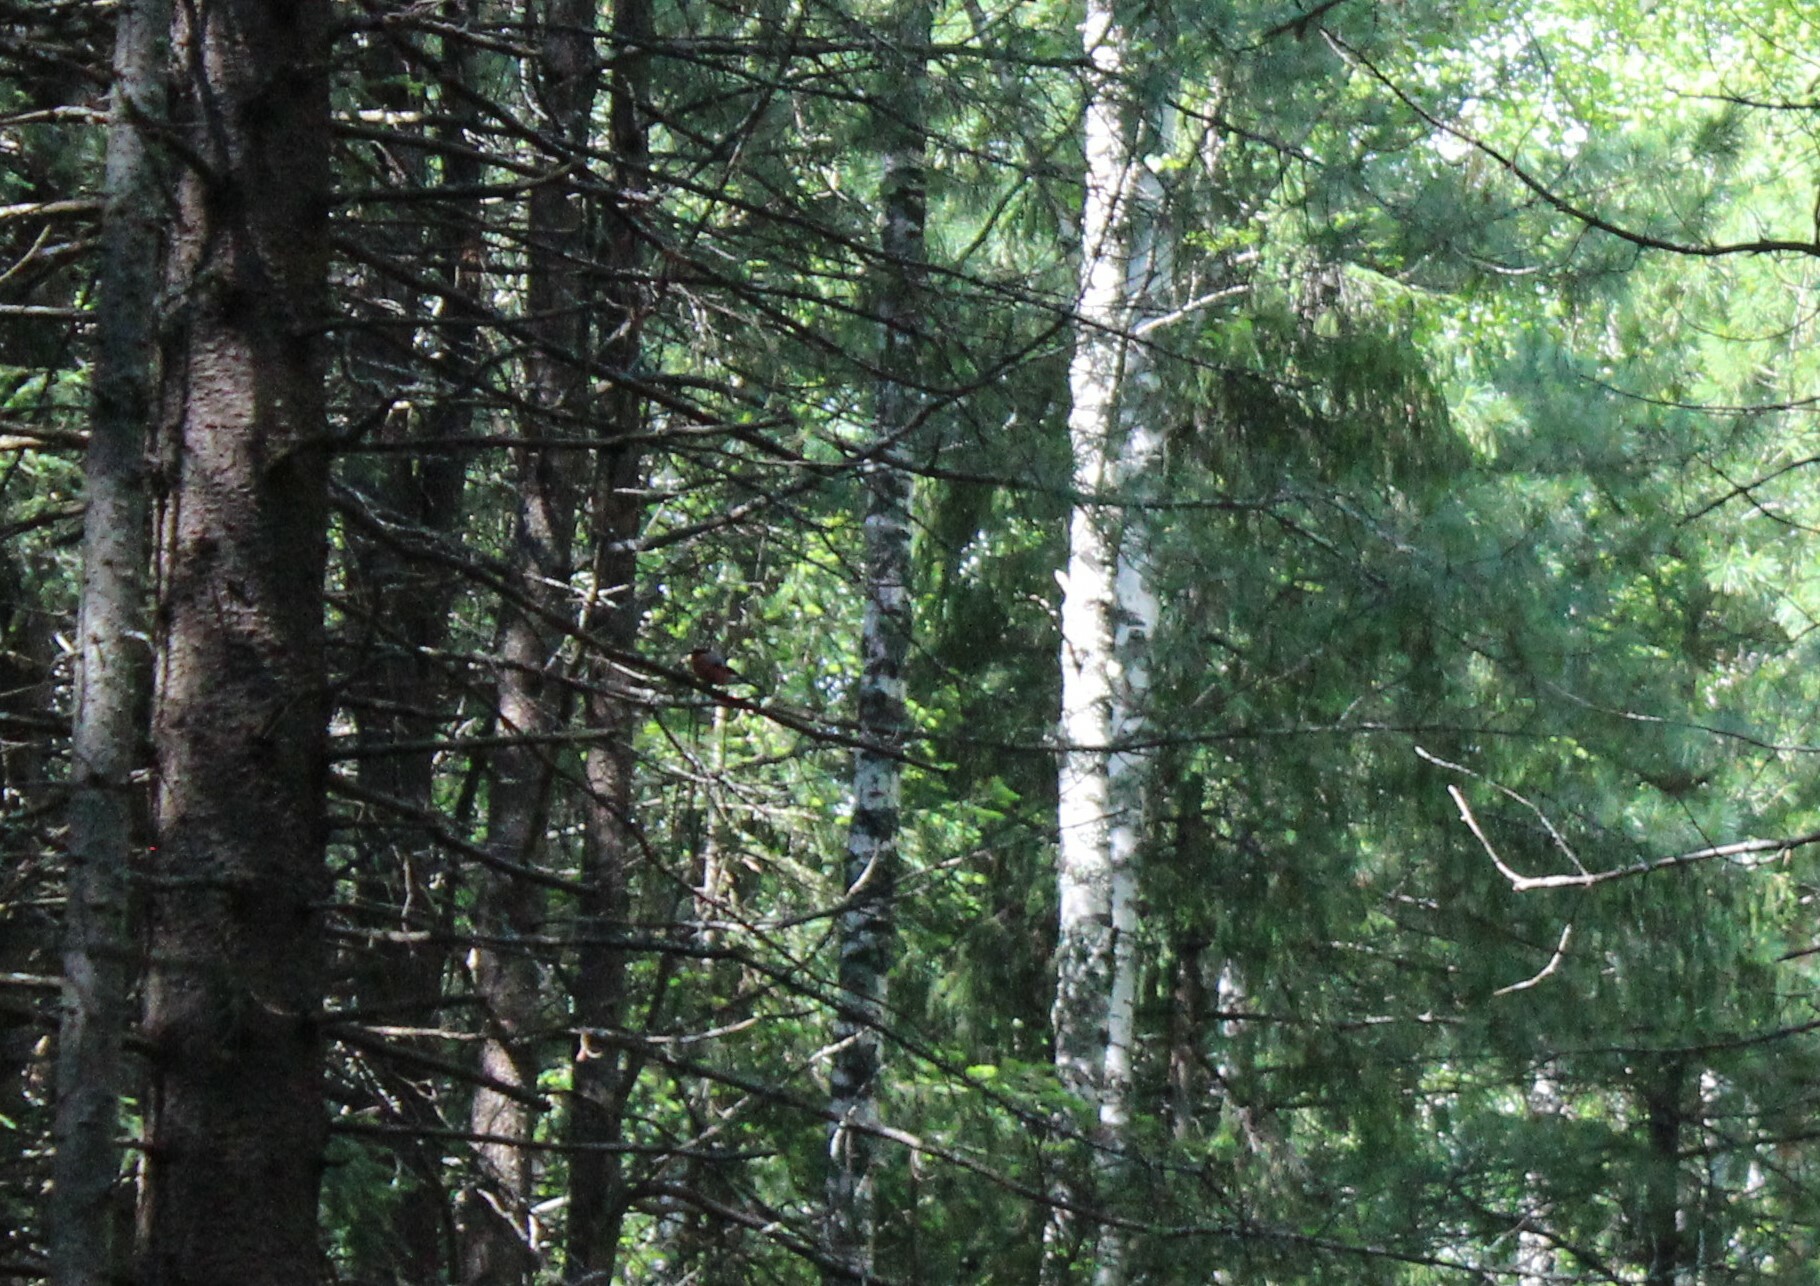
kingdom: Animalia
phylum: Chordata
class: Aves
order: Passeriformes
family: Fringillidae
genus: Pyrrhula
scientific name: Pyrrhula pyrrhula
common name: Eurasian bullfinch
